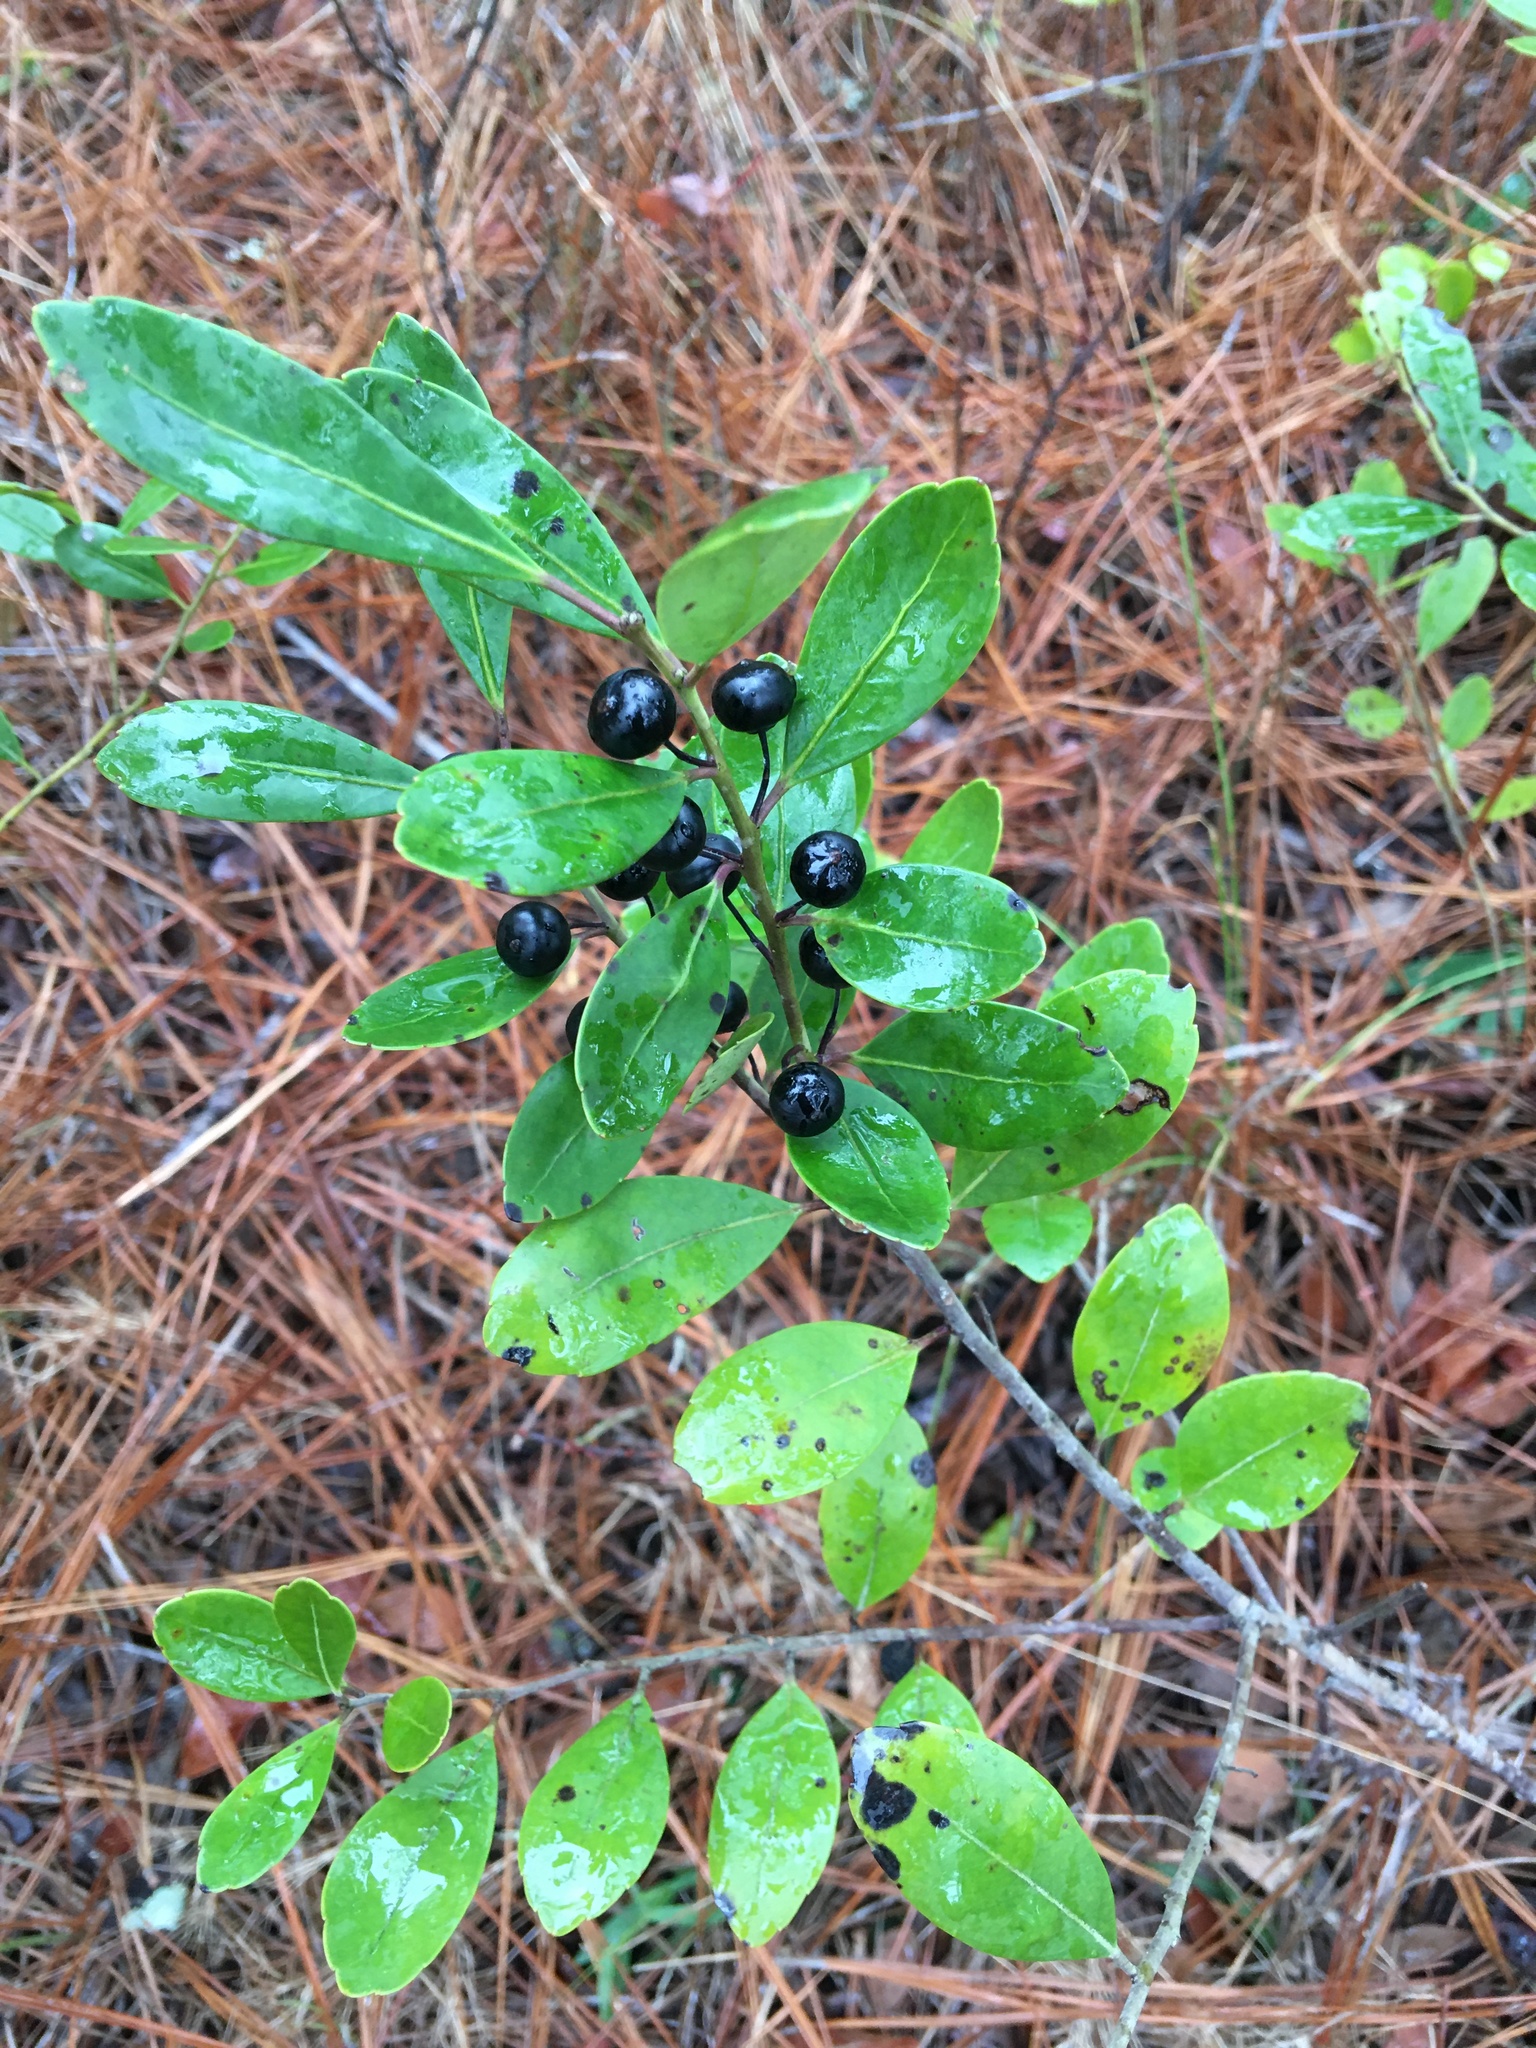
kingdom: Plantae
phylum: Tracheophyta
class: Magnoliopsida
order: Aquifoliales
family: Aquifoliaceae
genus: Ilex
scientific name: Ilex glabra
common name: Bitter gallberry
